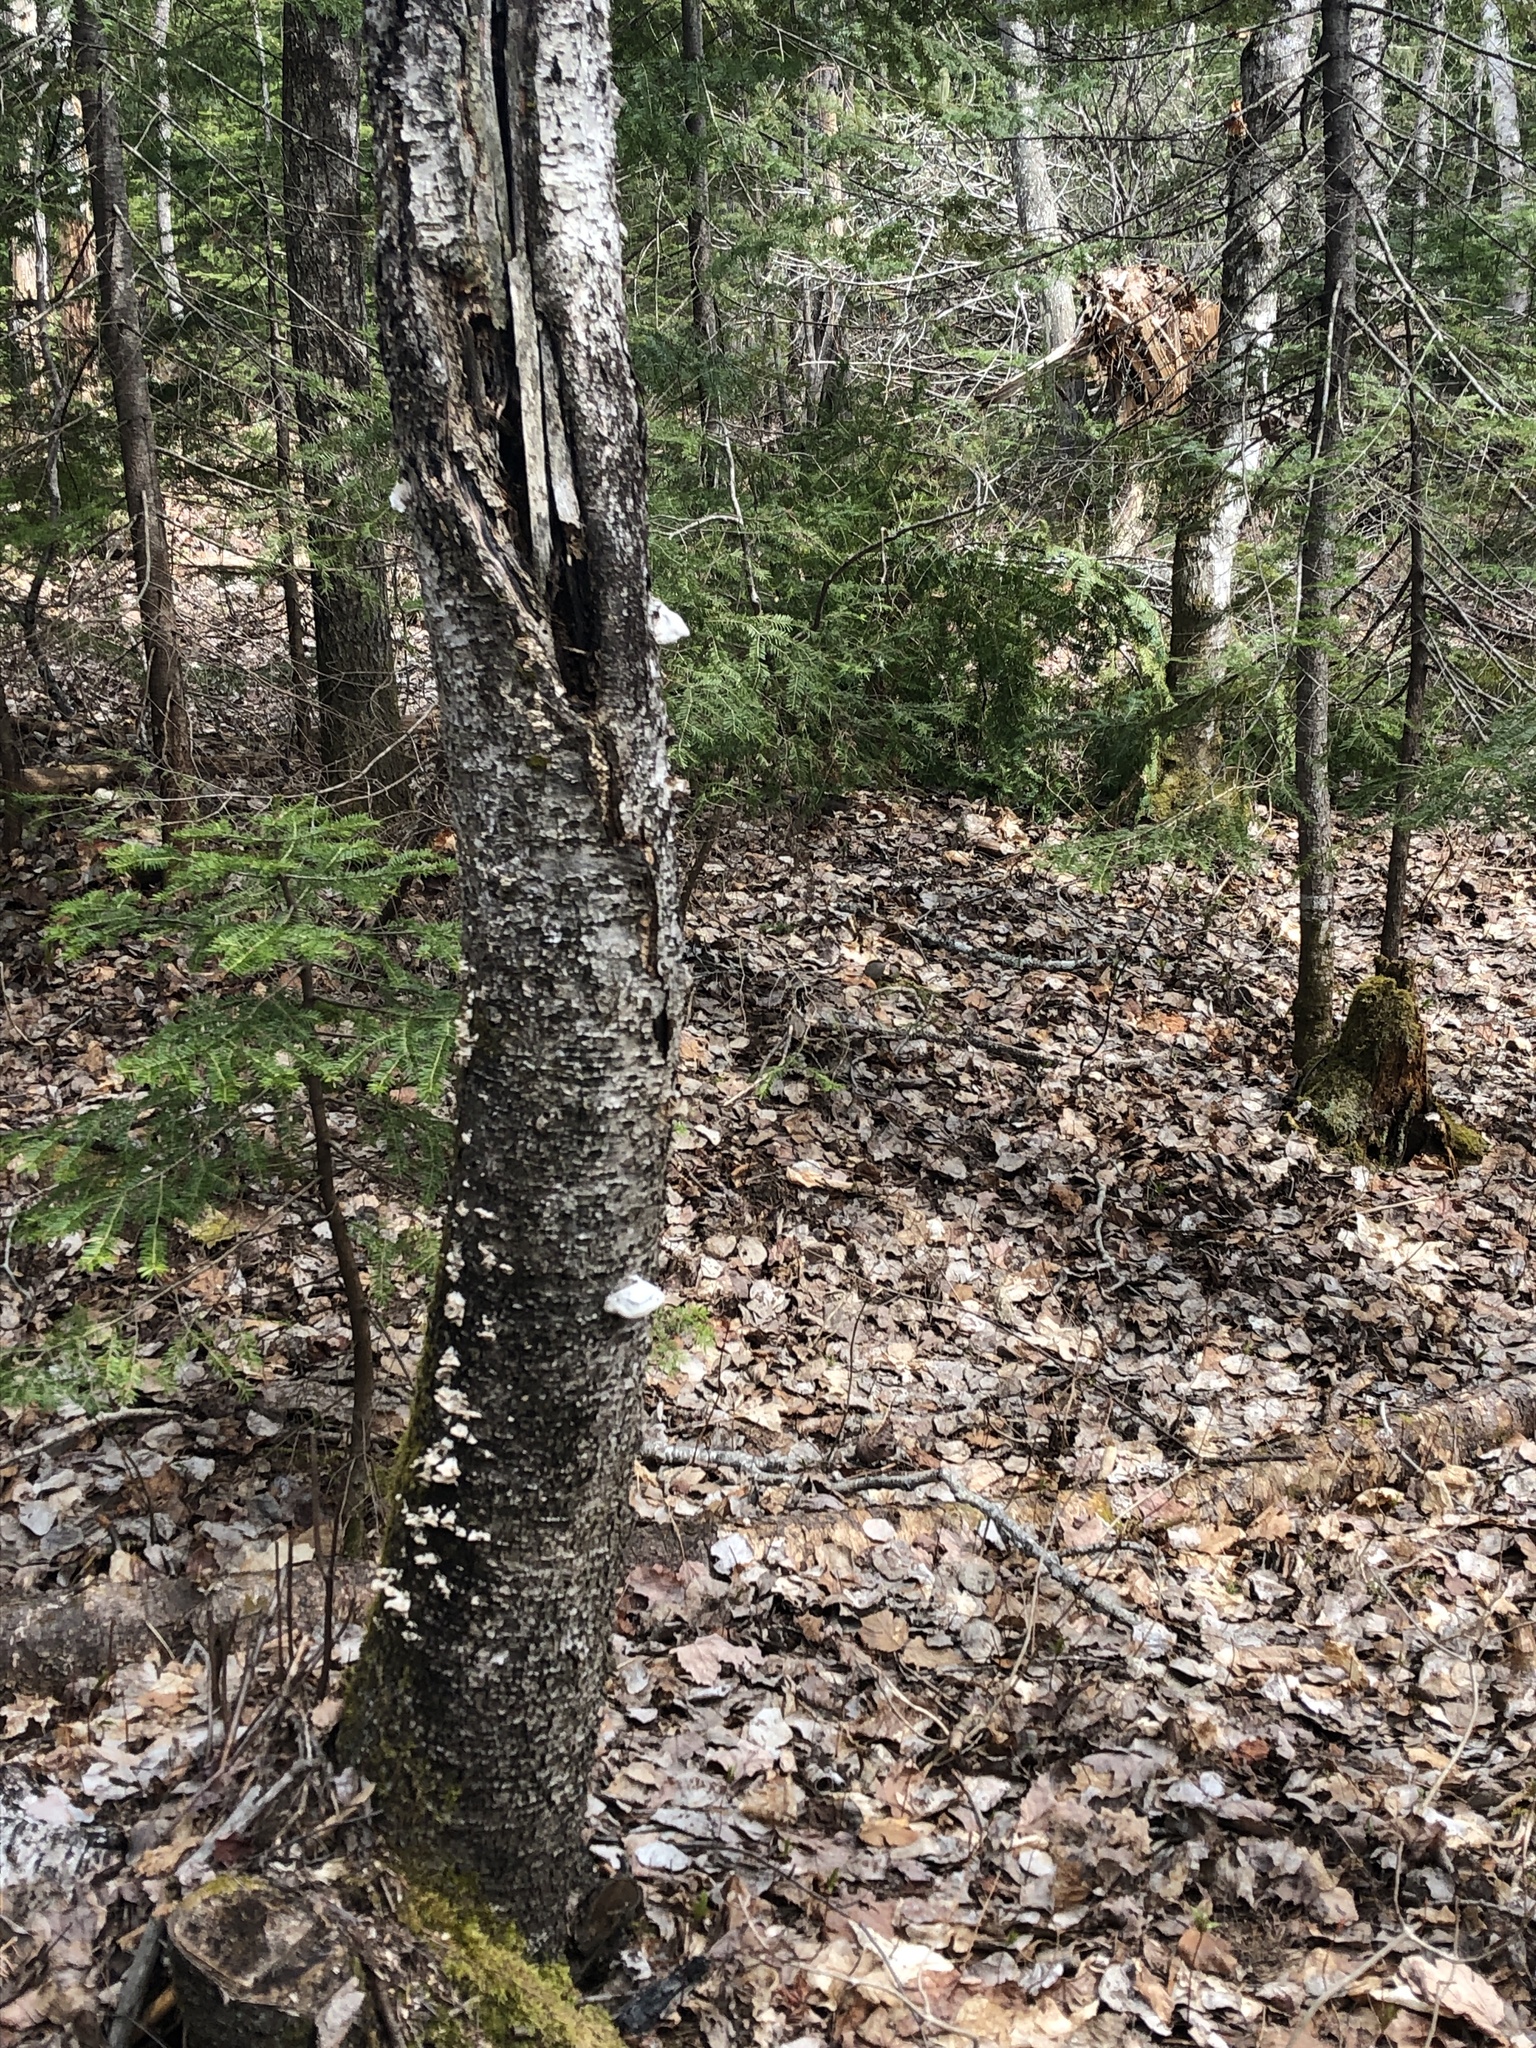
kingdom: Fungi
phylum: Basidiomycota
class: Agaricomycetes
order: Polyporales
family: Polyporaceae
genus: Fomes
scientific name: Fomes fomentarius
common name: Hoof fungus
